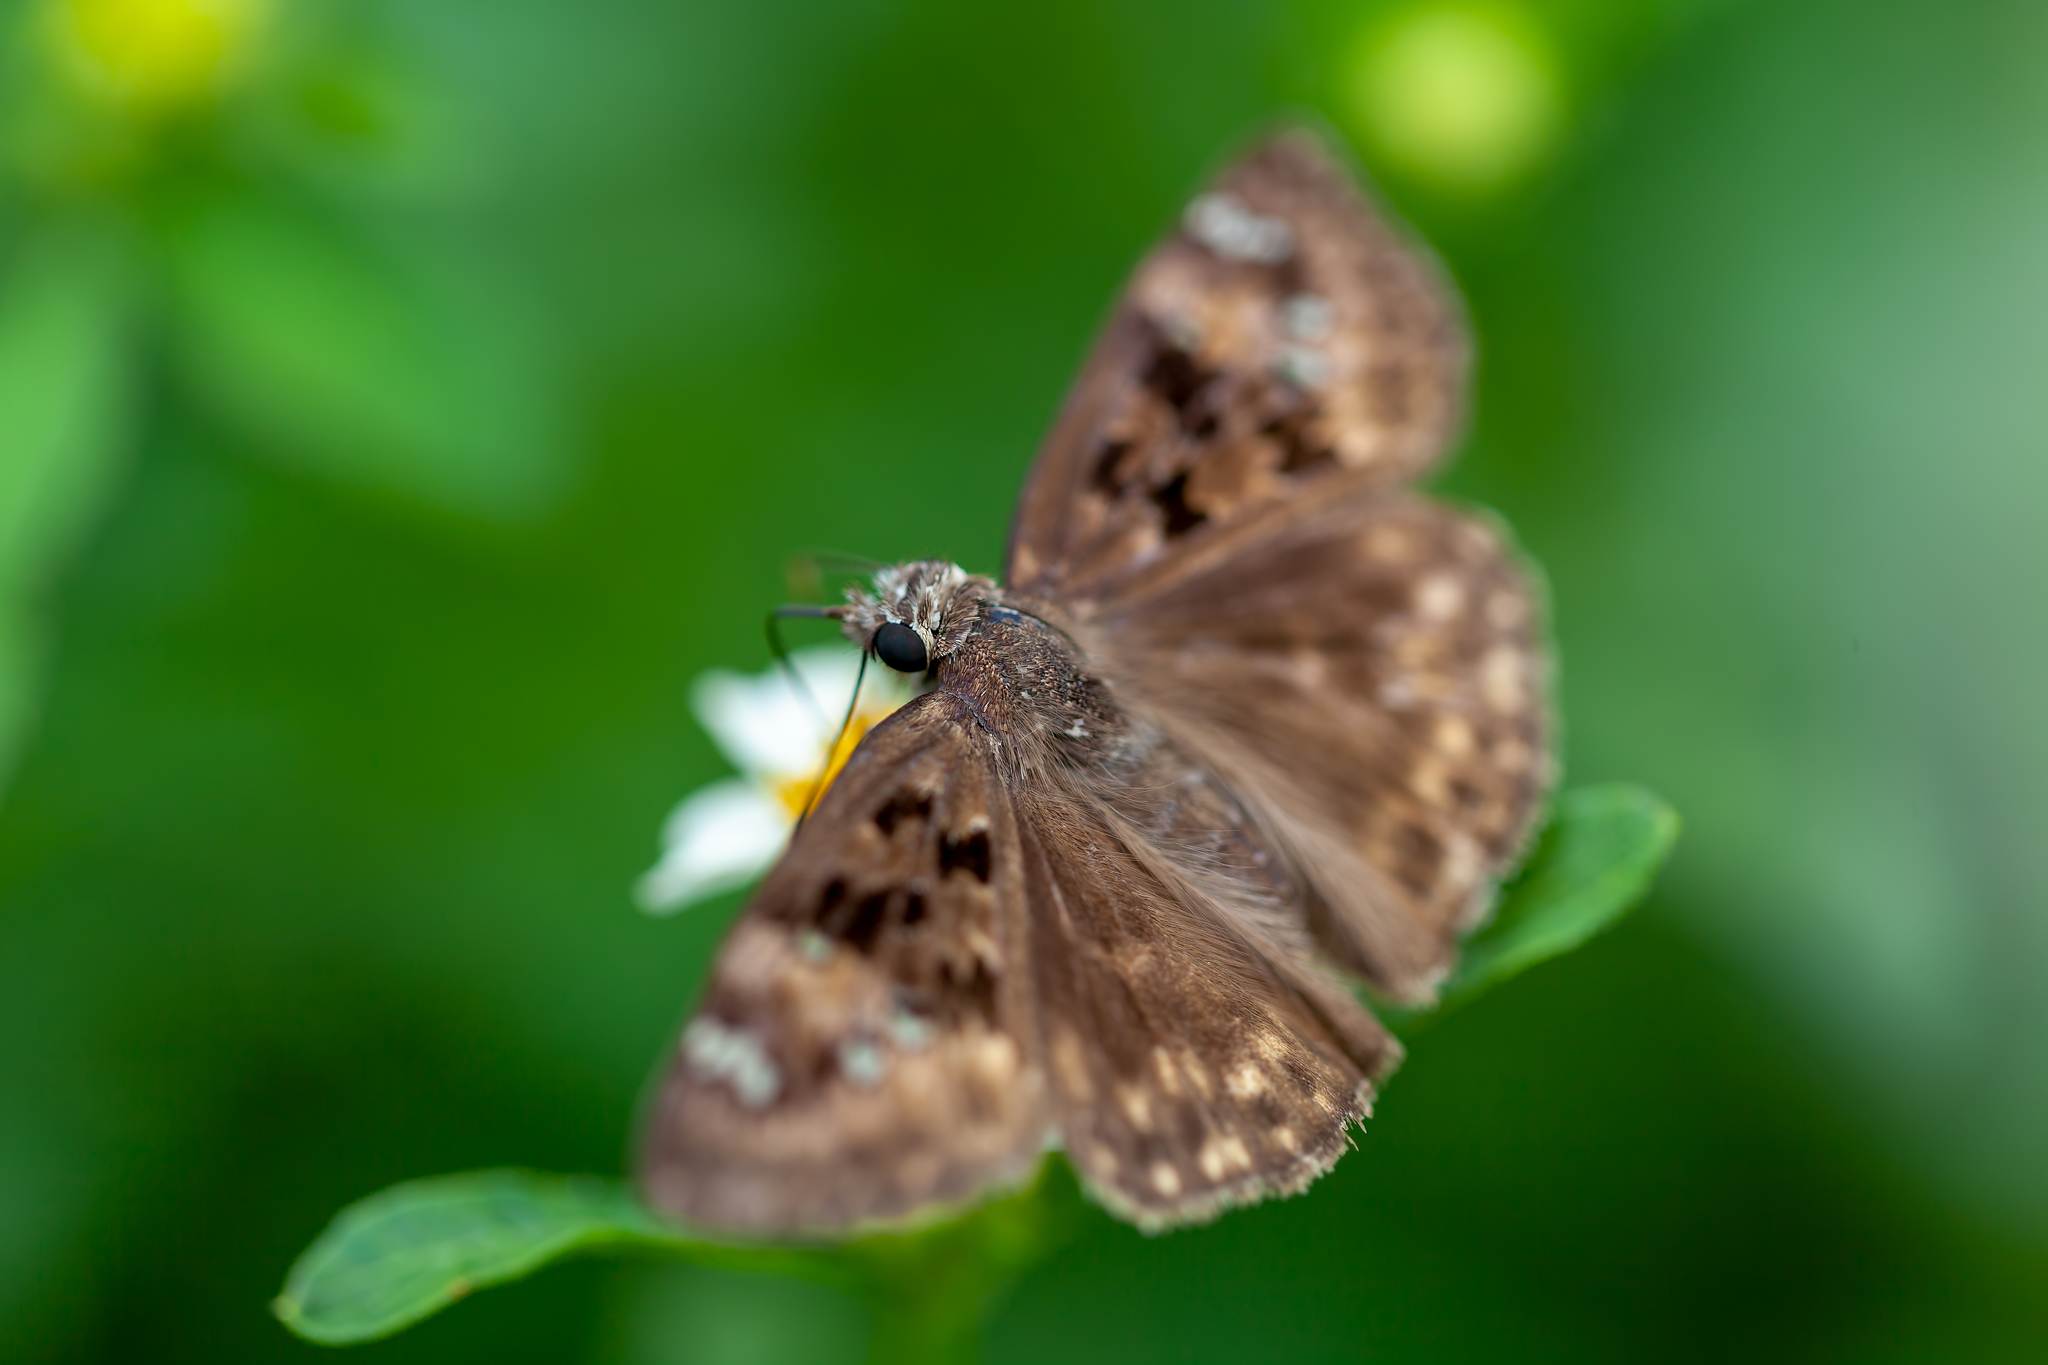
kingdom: Animalia
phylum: Arthropoda
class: Insecta
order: Lepidoptera
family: Hesperiidae
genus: Erynnis
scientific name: Erynnis horatius
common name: Horace's duskywing
